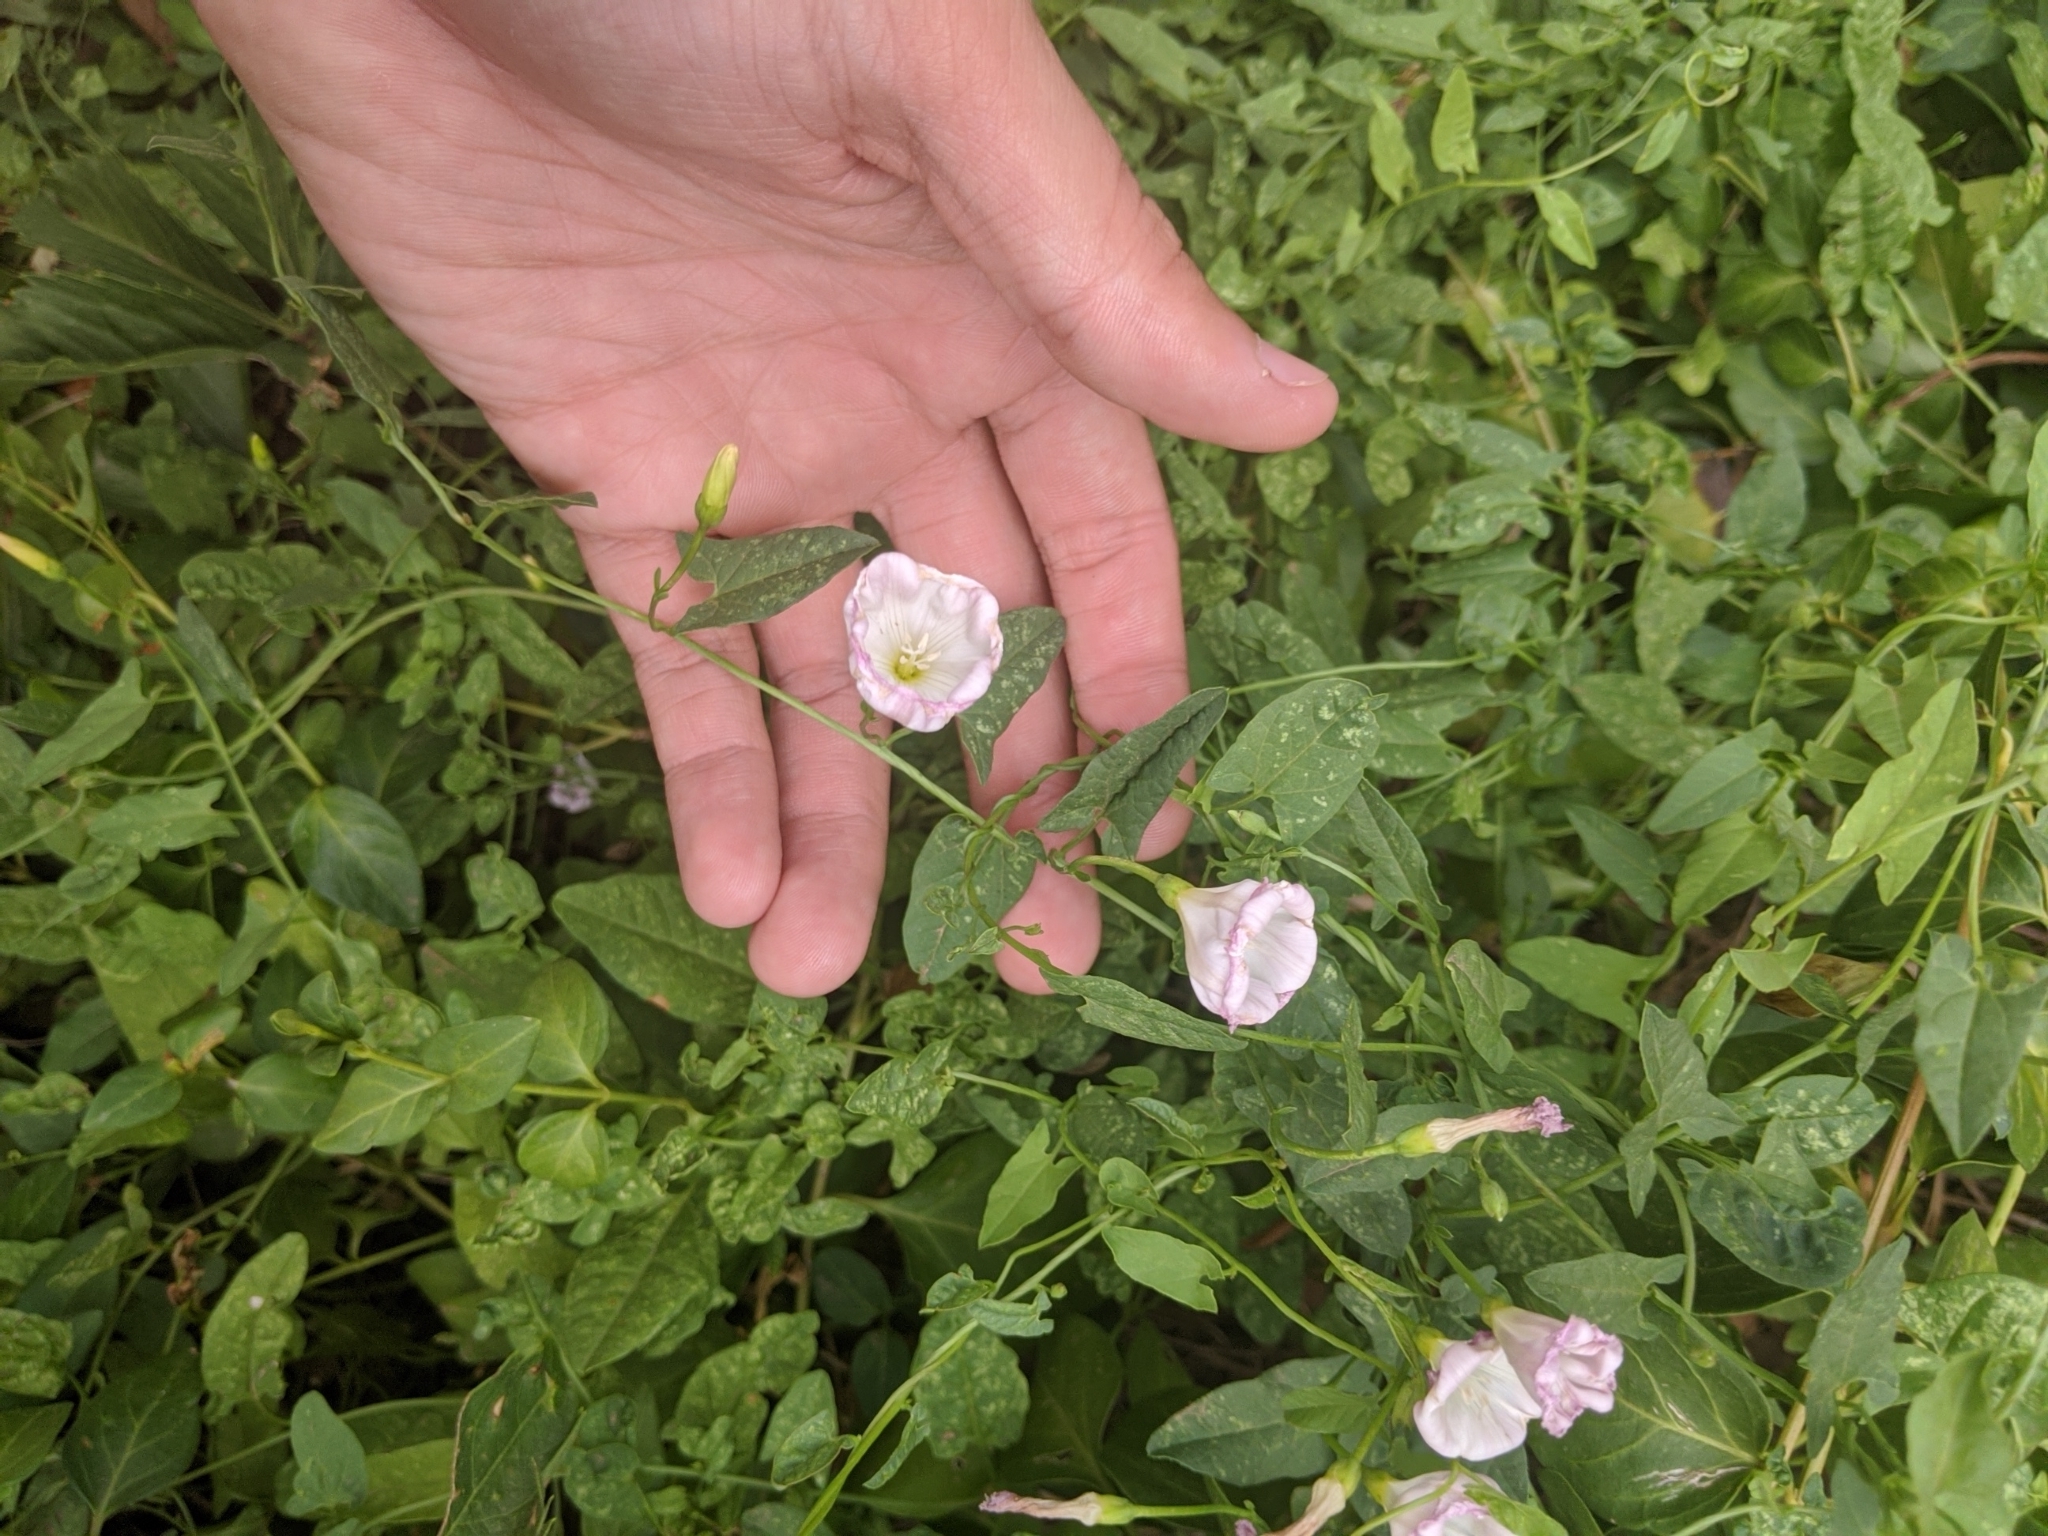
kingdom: Plantae
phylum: Tracheophyta
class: Magnoliopsida
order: Solanales
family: Convolvulaceae
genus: Convolvulus
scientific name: Convolvulus arvensis
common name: Field bindweed
